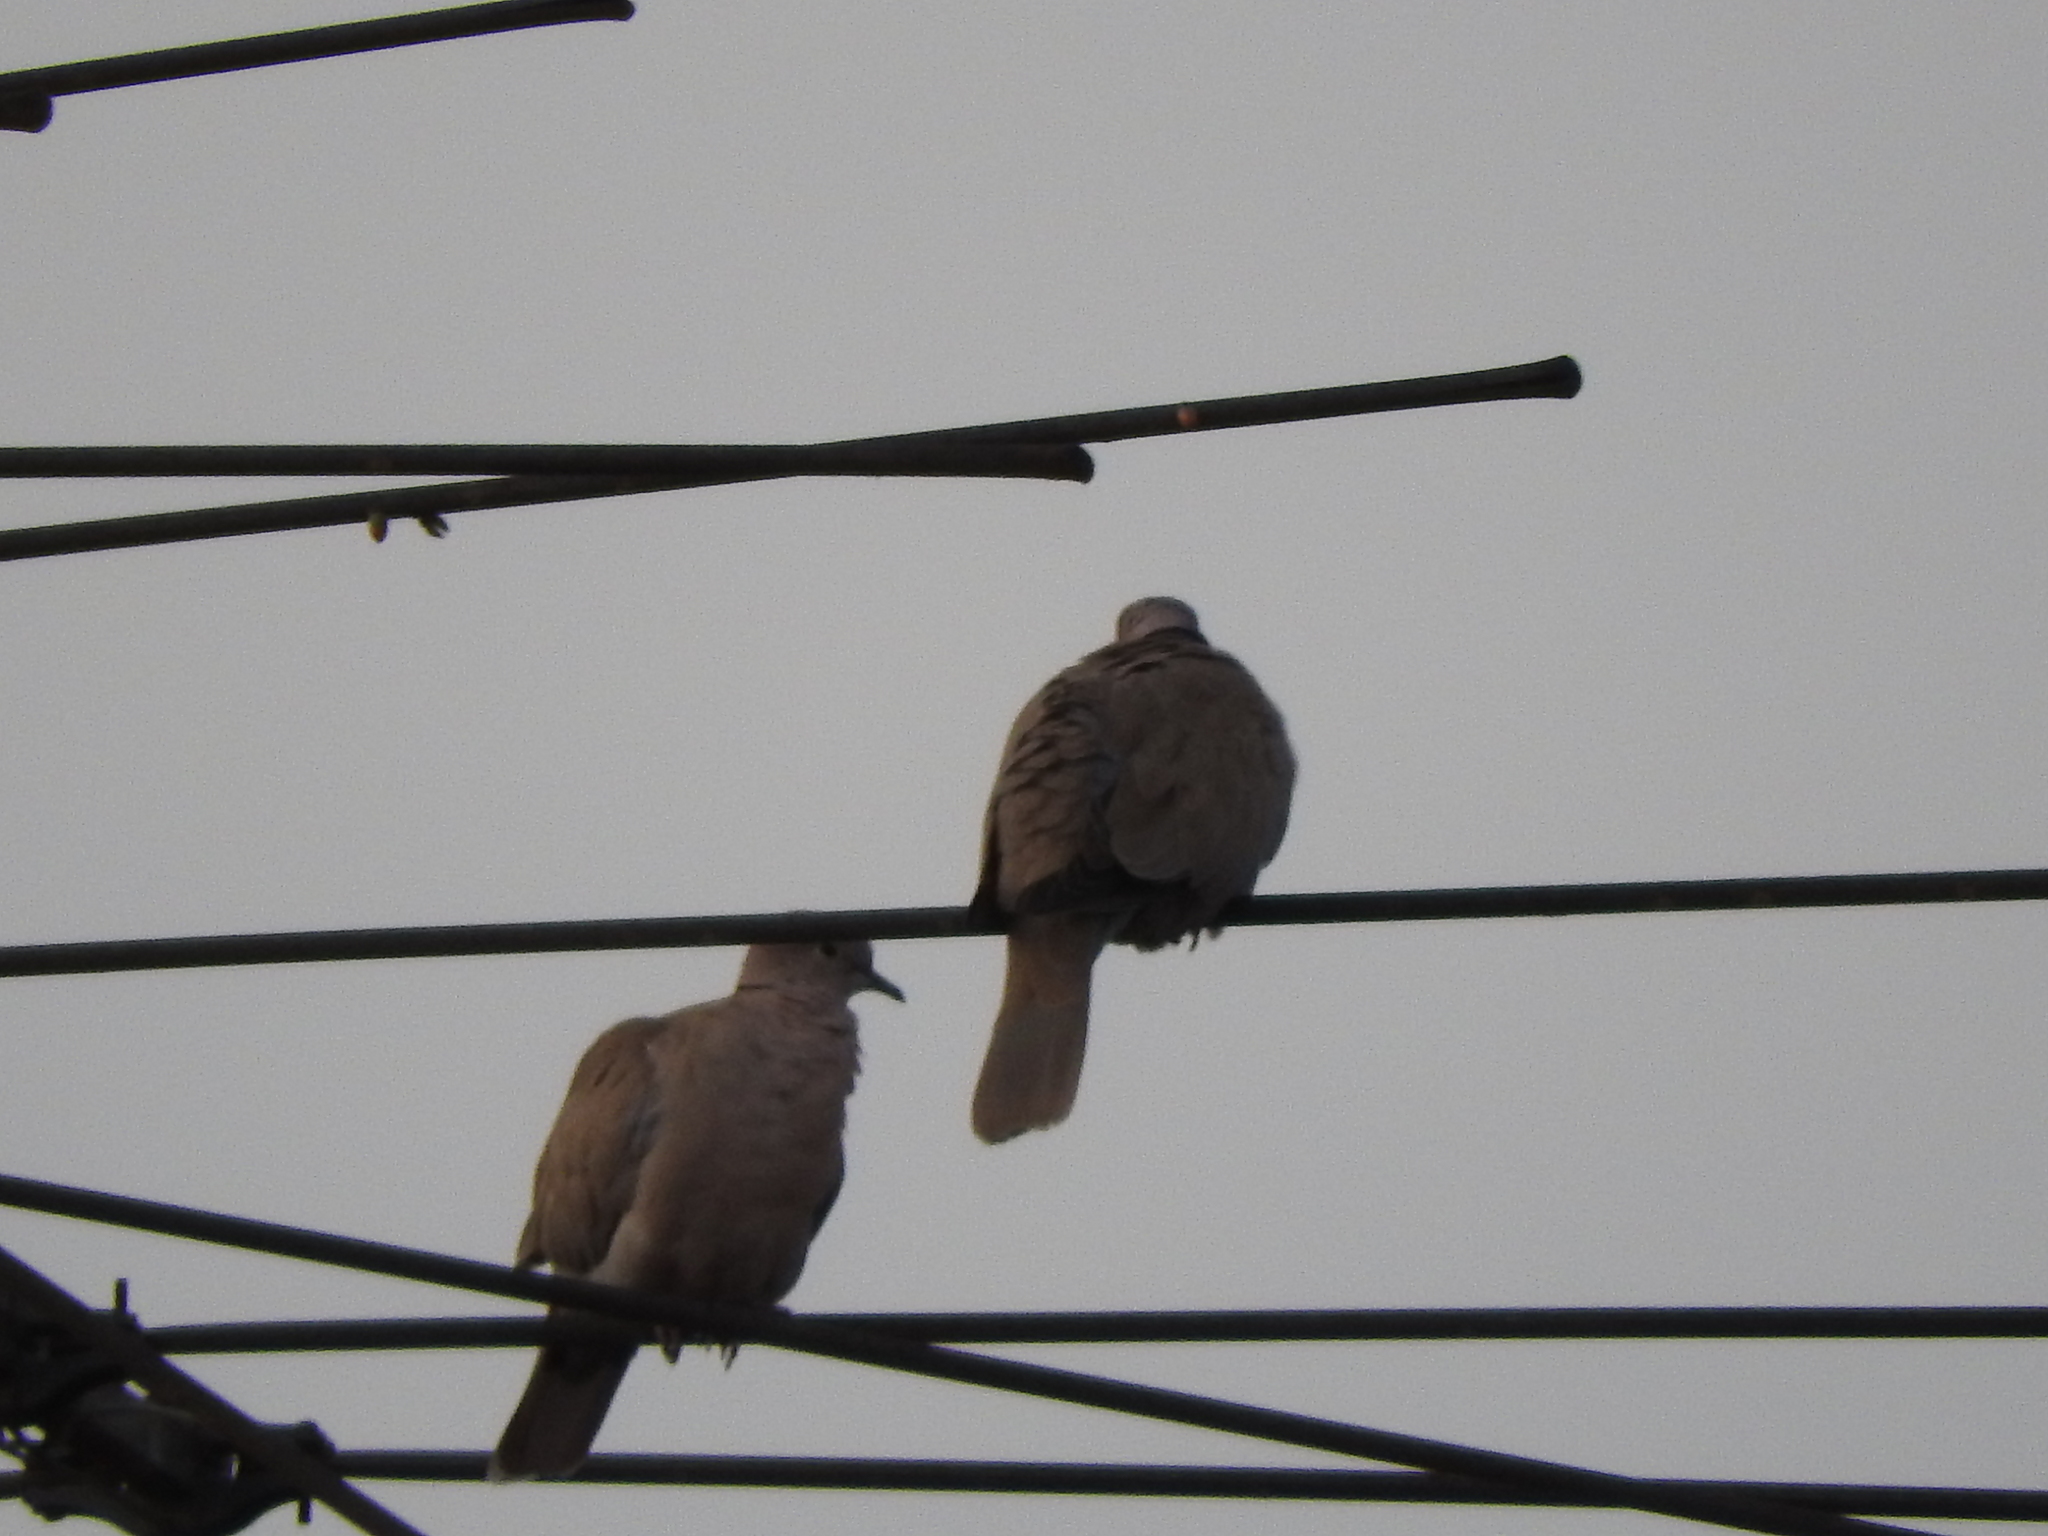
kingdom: Animalia
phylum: Chordata
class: Aves
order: Columbiformes
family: Columbidae
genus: Streptopelia
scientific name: Streptopelia decaocto
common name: Eurasian collared dove
